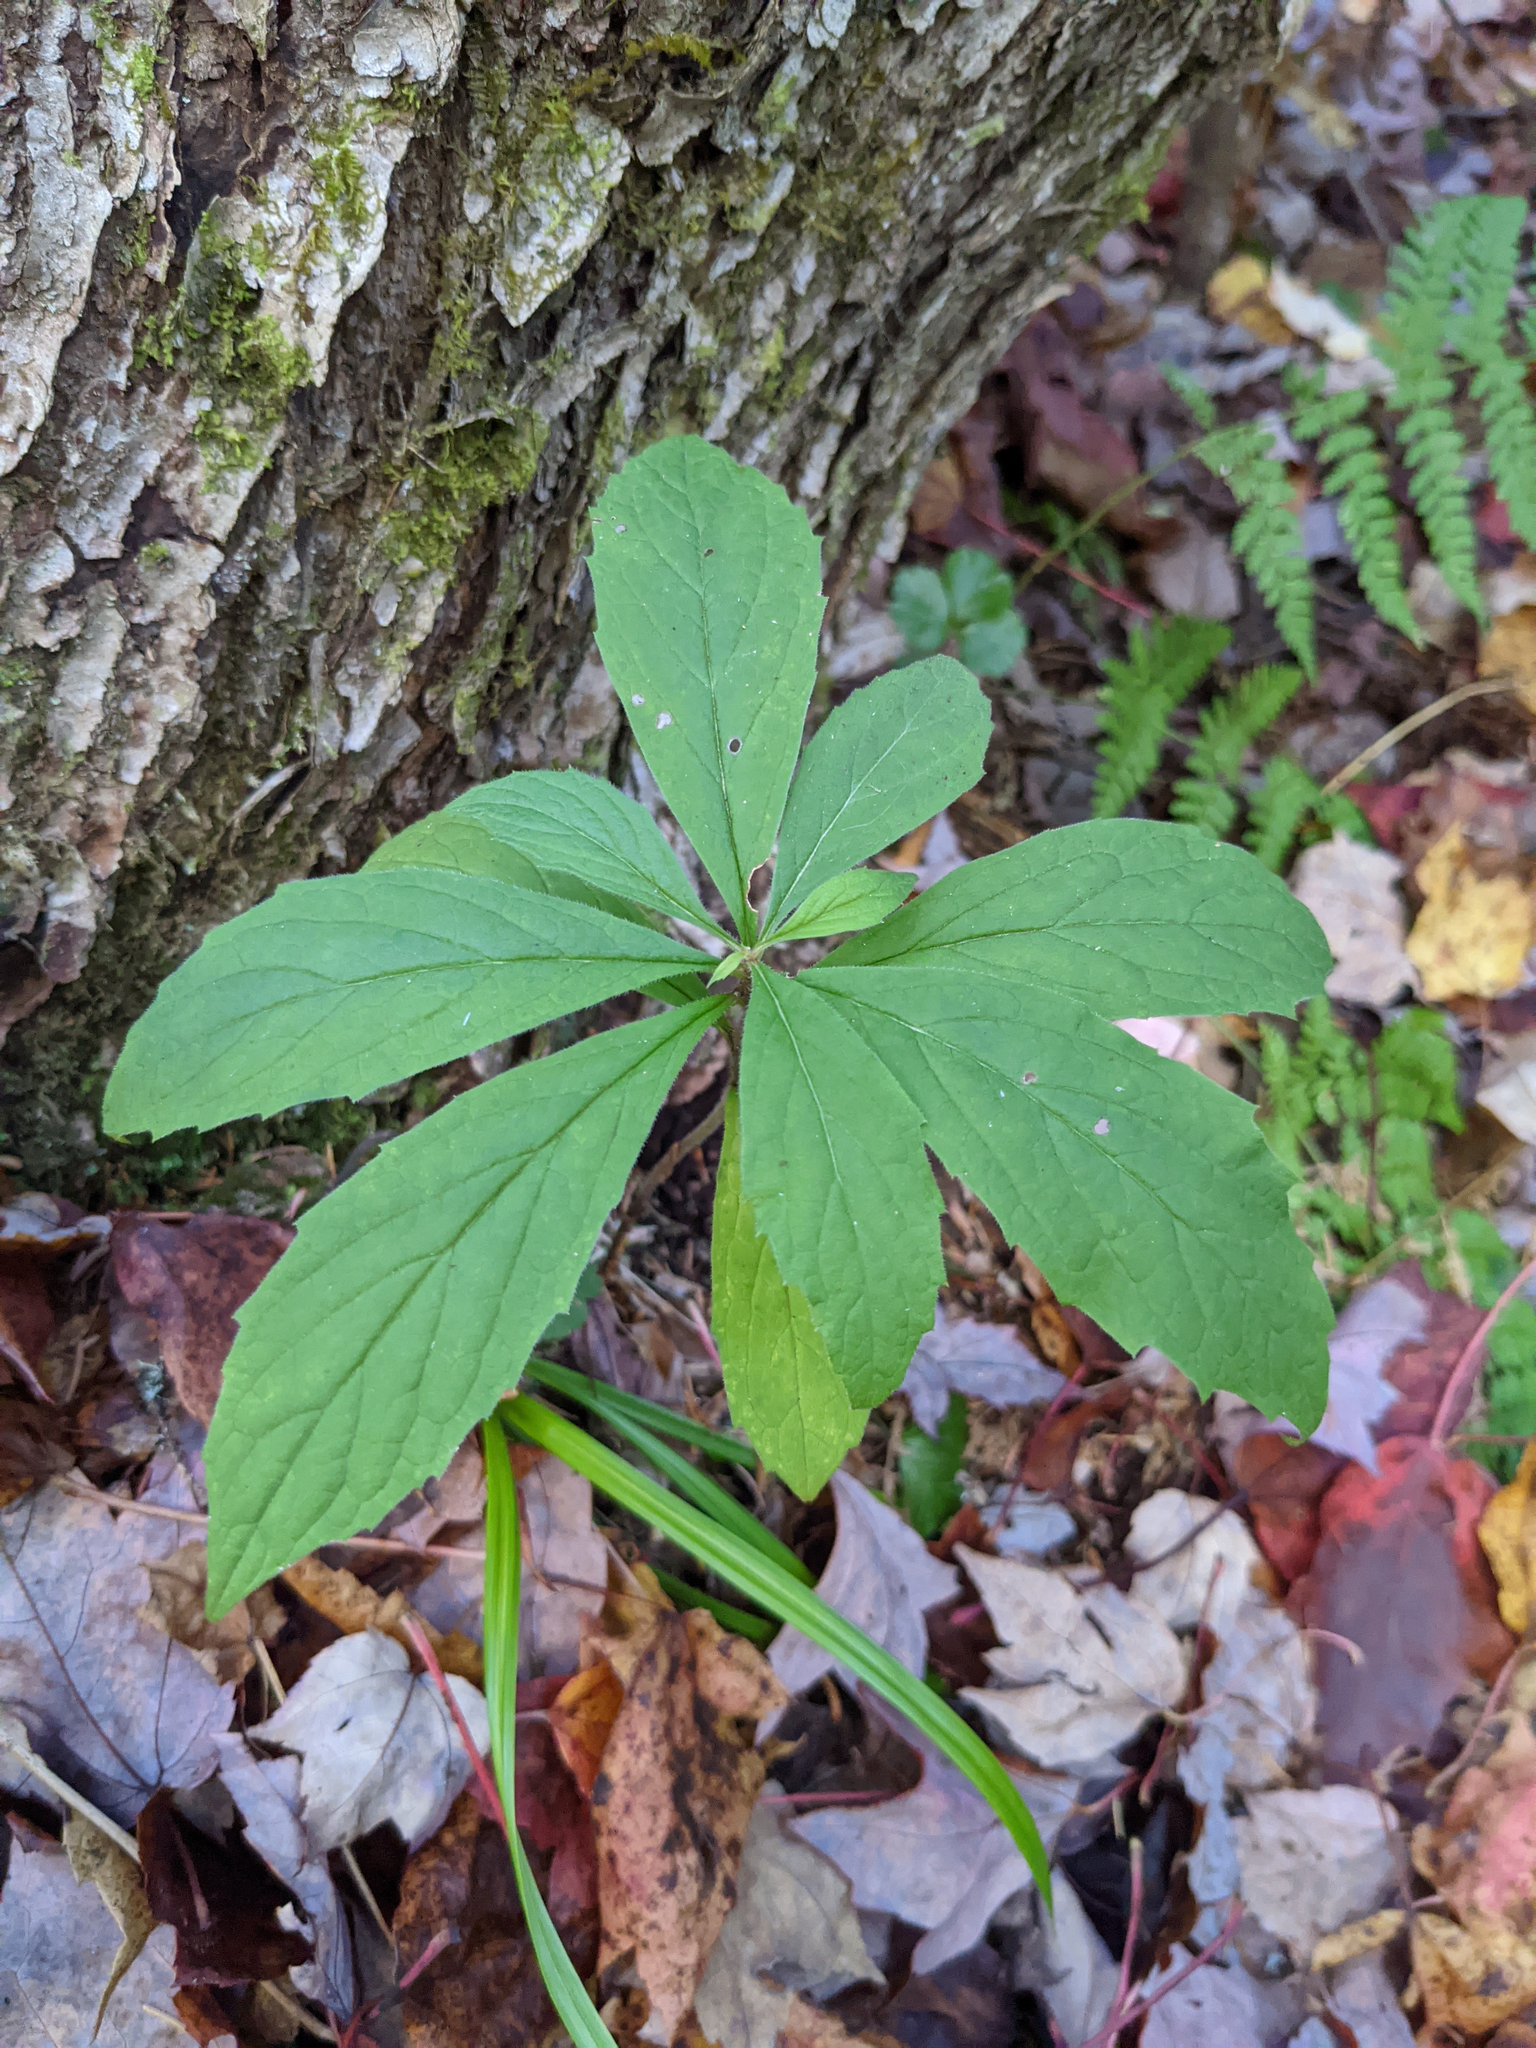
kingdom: Plantae
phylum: Tracheophyta
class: Magnoliopsida
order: Asterales
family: Asteraceae
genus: Oclemena
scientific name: Oclemena acuminata
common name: Mountain aster
